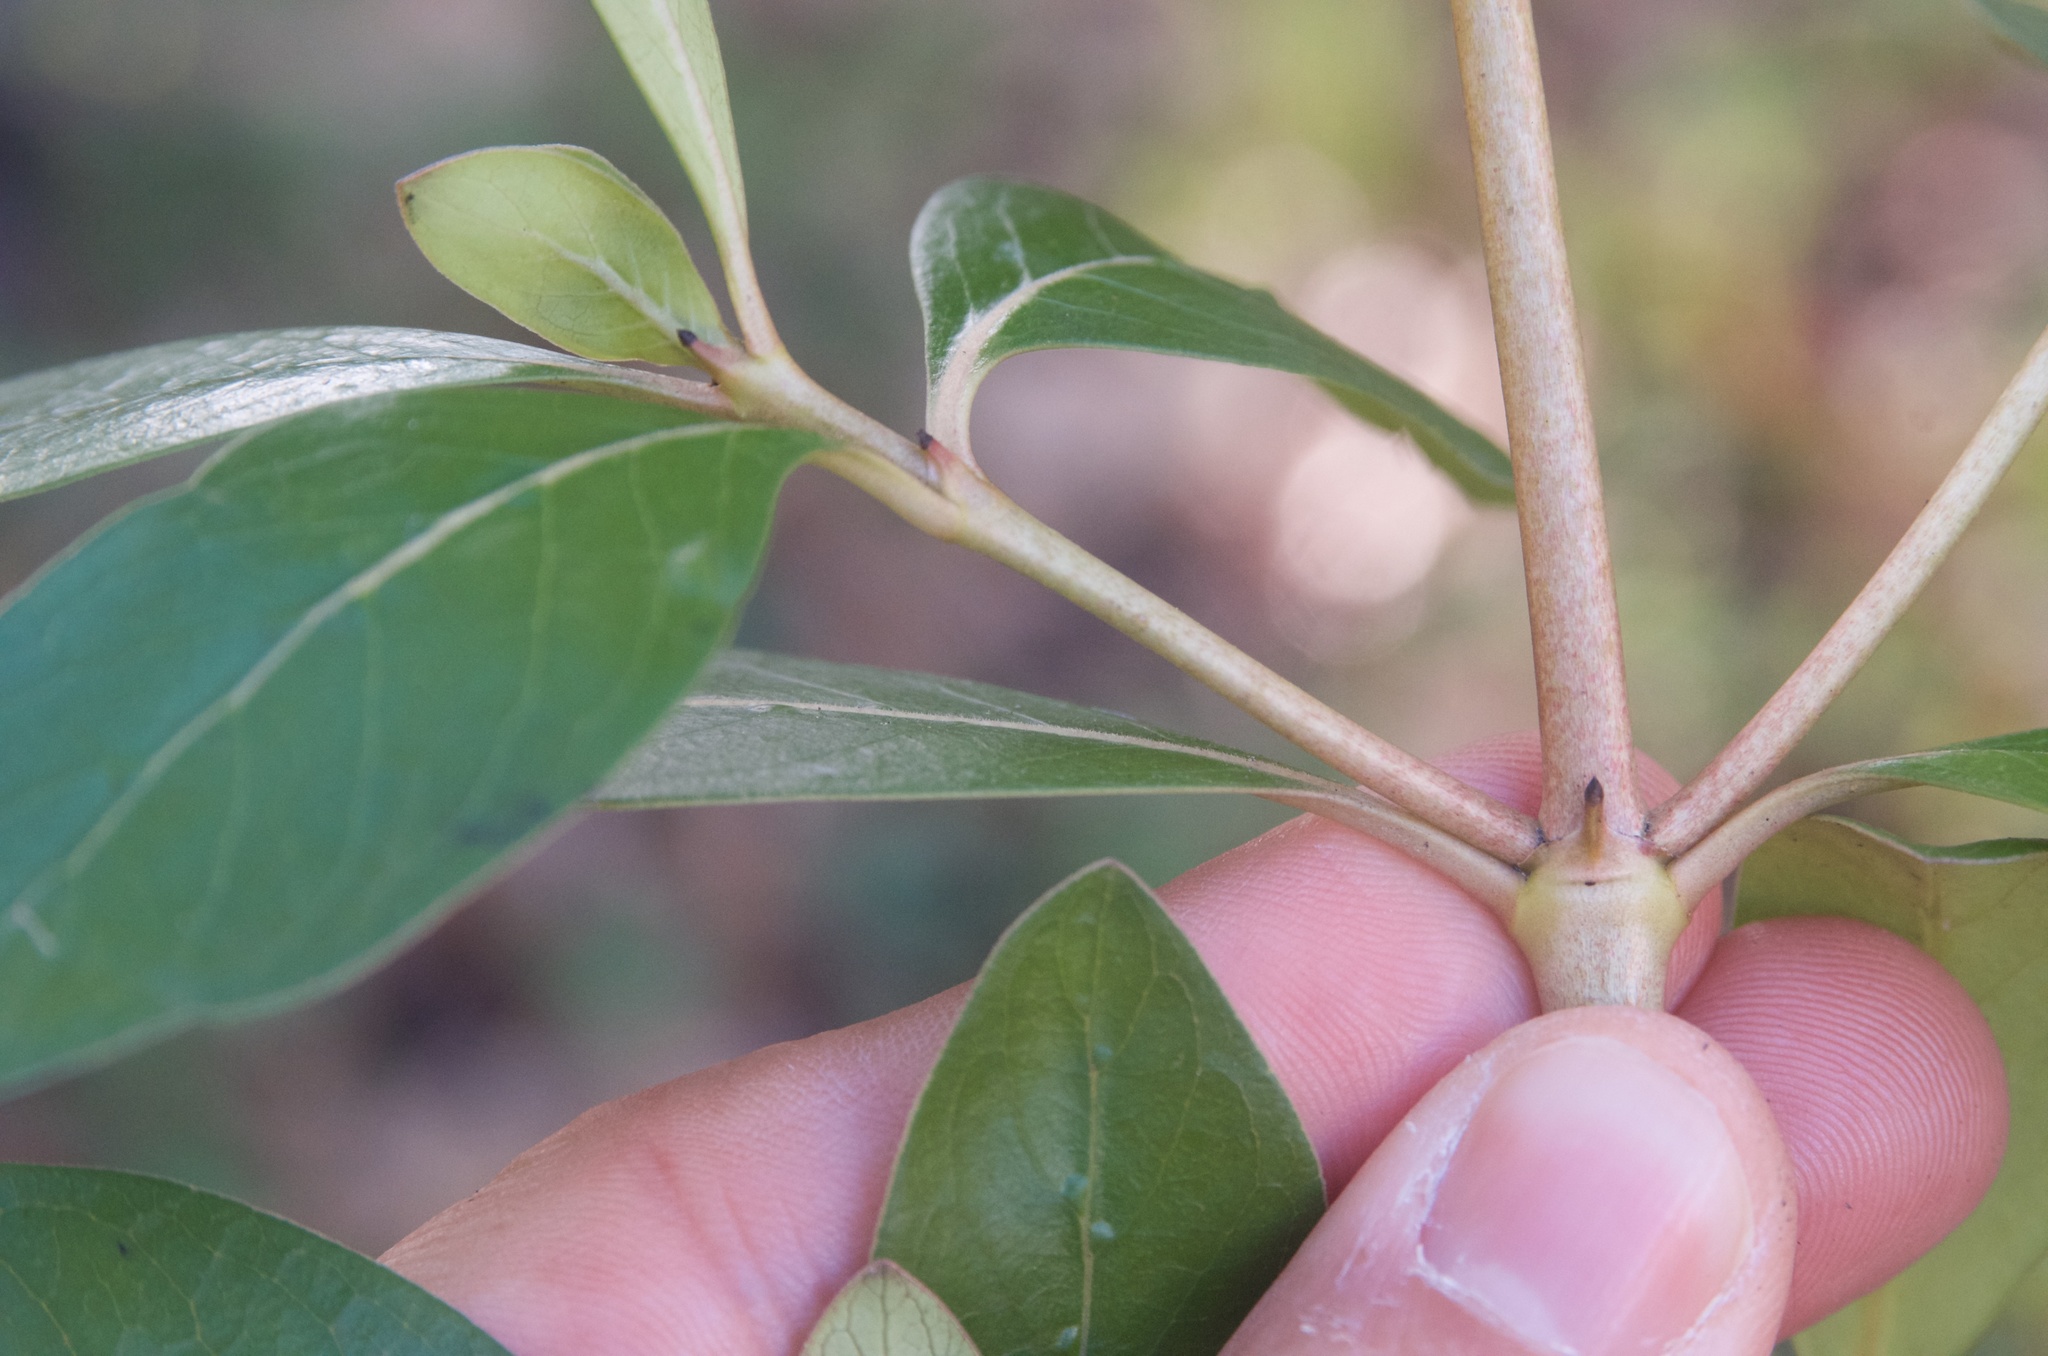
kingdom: Plantae
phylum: Tracheophyta
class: Magnoliopsida
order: Gentianales
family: Rubiaceae
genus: Coprosma
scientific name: Coprosma robusta
